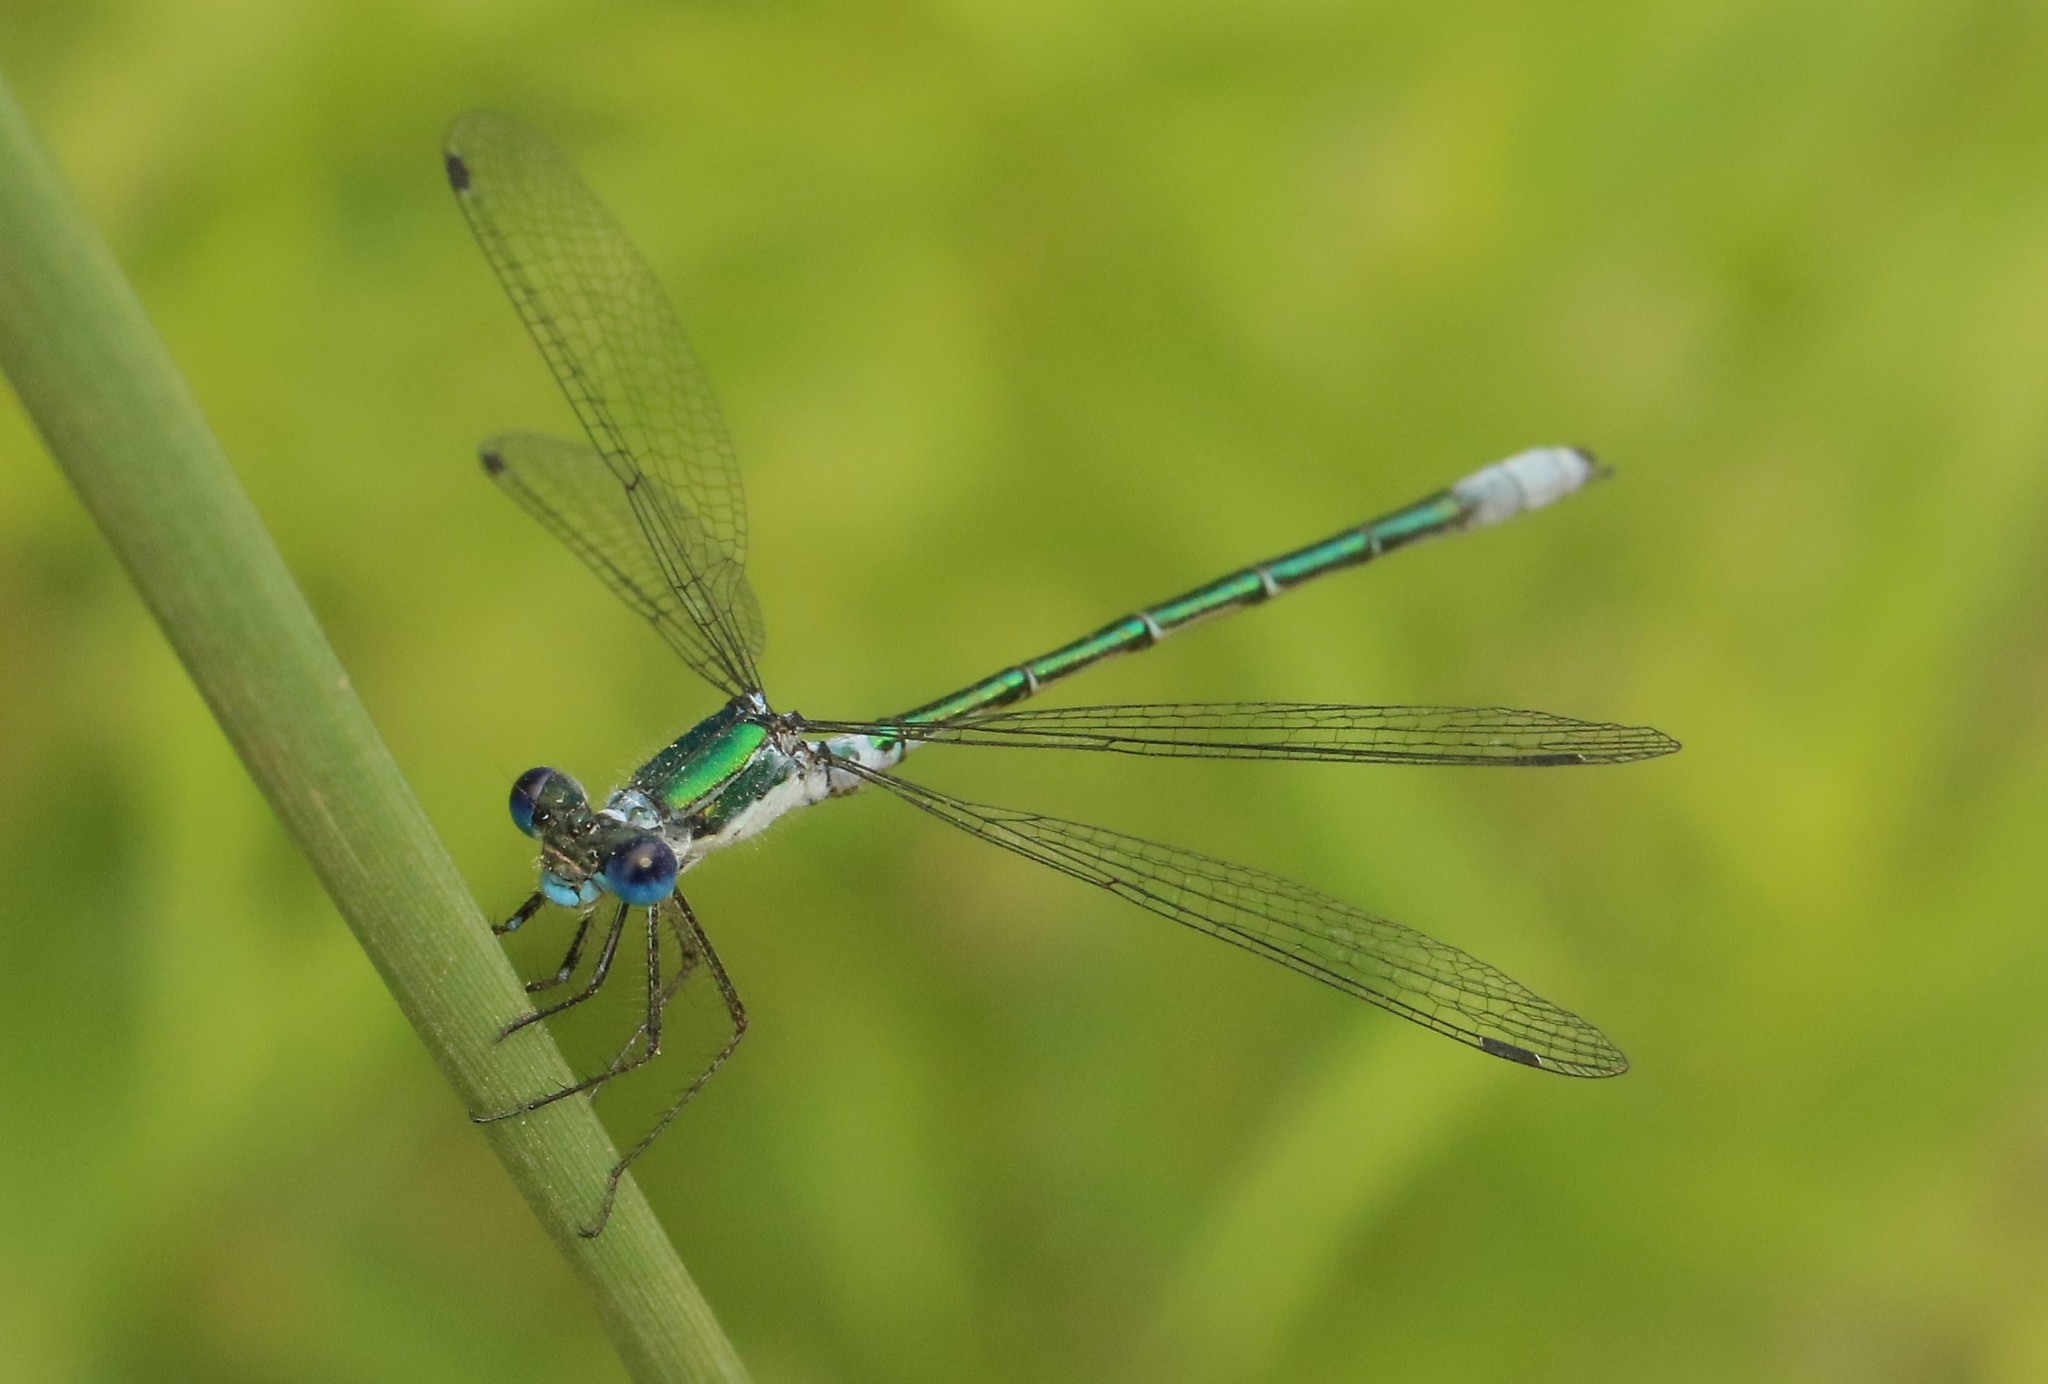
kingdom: Animalia
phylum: Arthropoda
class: Insecta
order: Odonata
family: Lestidae
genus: Lestes
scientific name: Lestes dryas
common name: Scarce emerald damselfly
